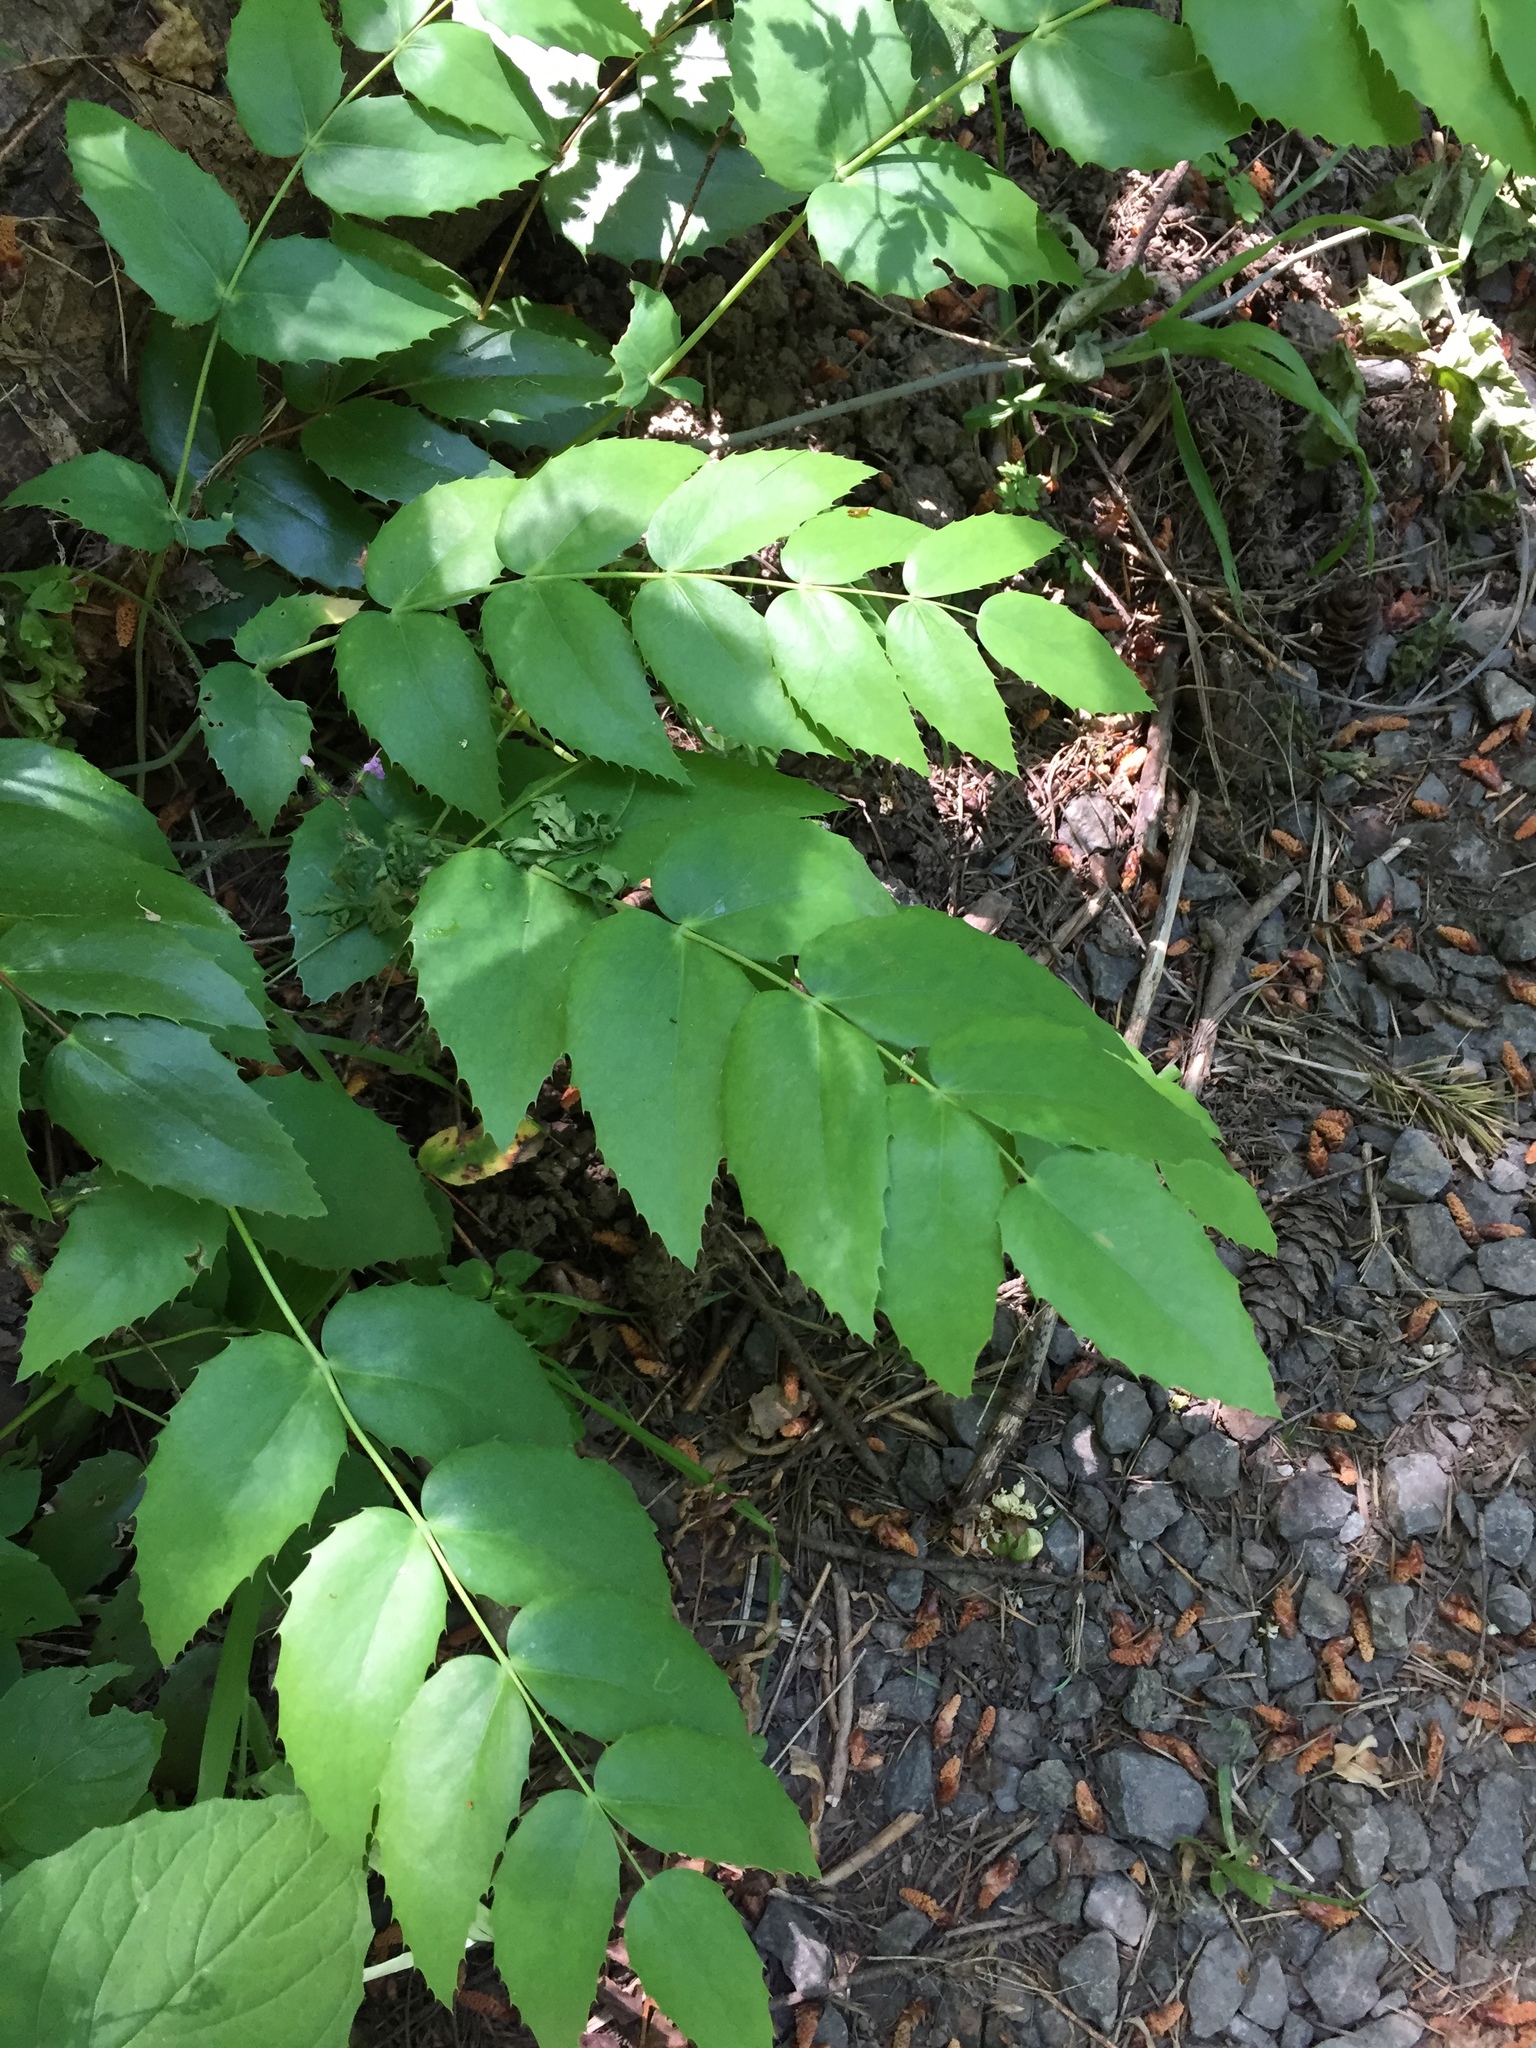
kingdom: Plantae
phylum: Tracheophyta
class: Magnoliopsida
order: Ranunculales
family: Berberidaceae
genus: Mahonia
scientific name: Mahonia nervosa
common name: Cascade oregon-grape
